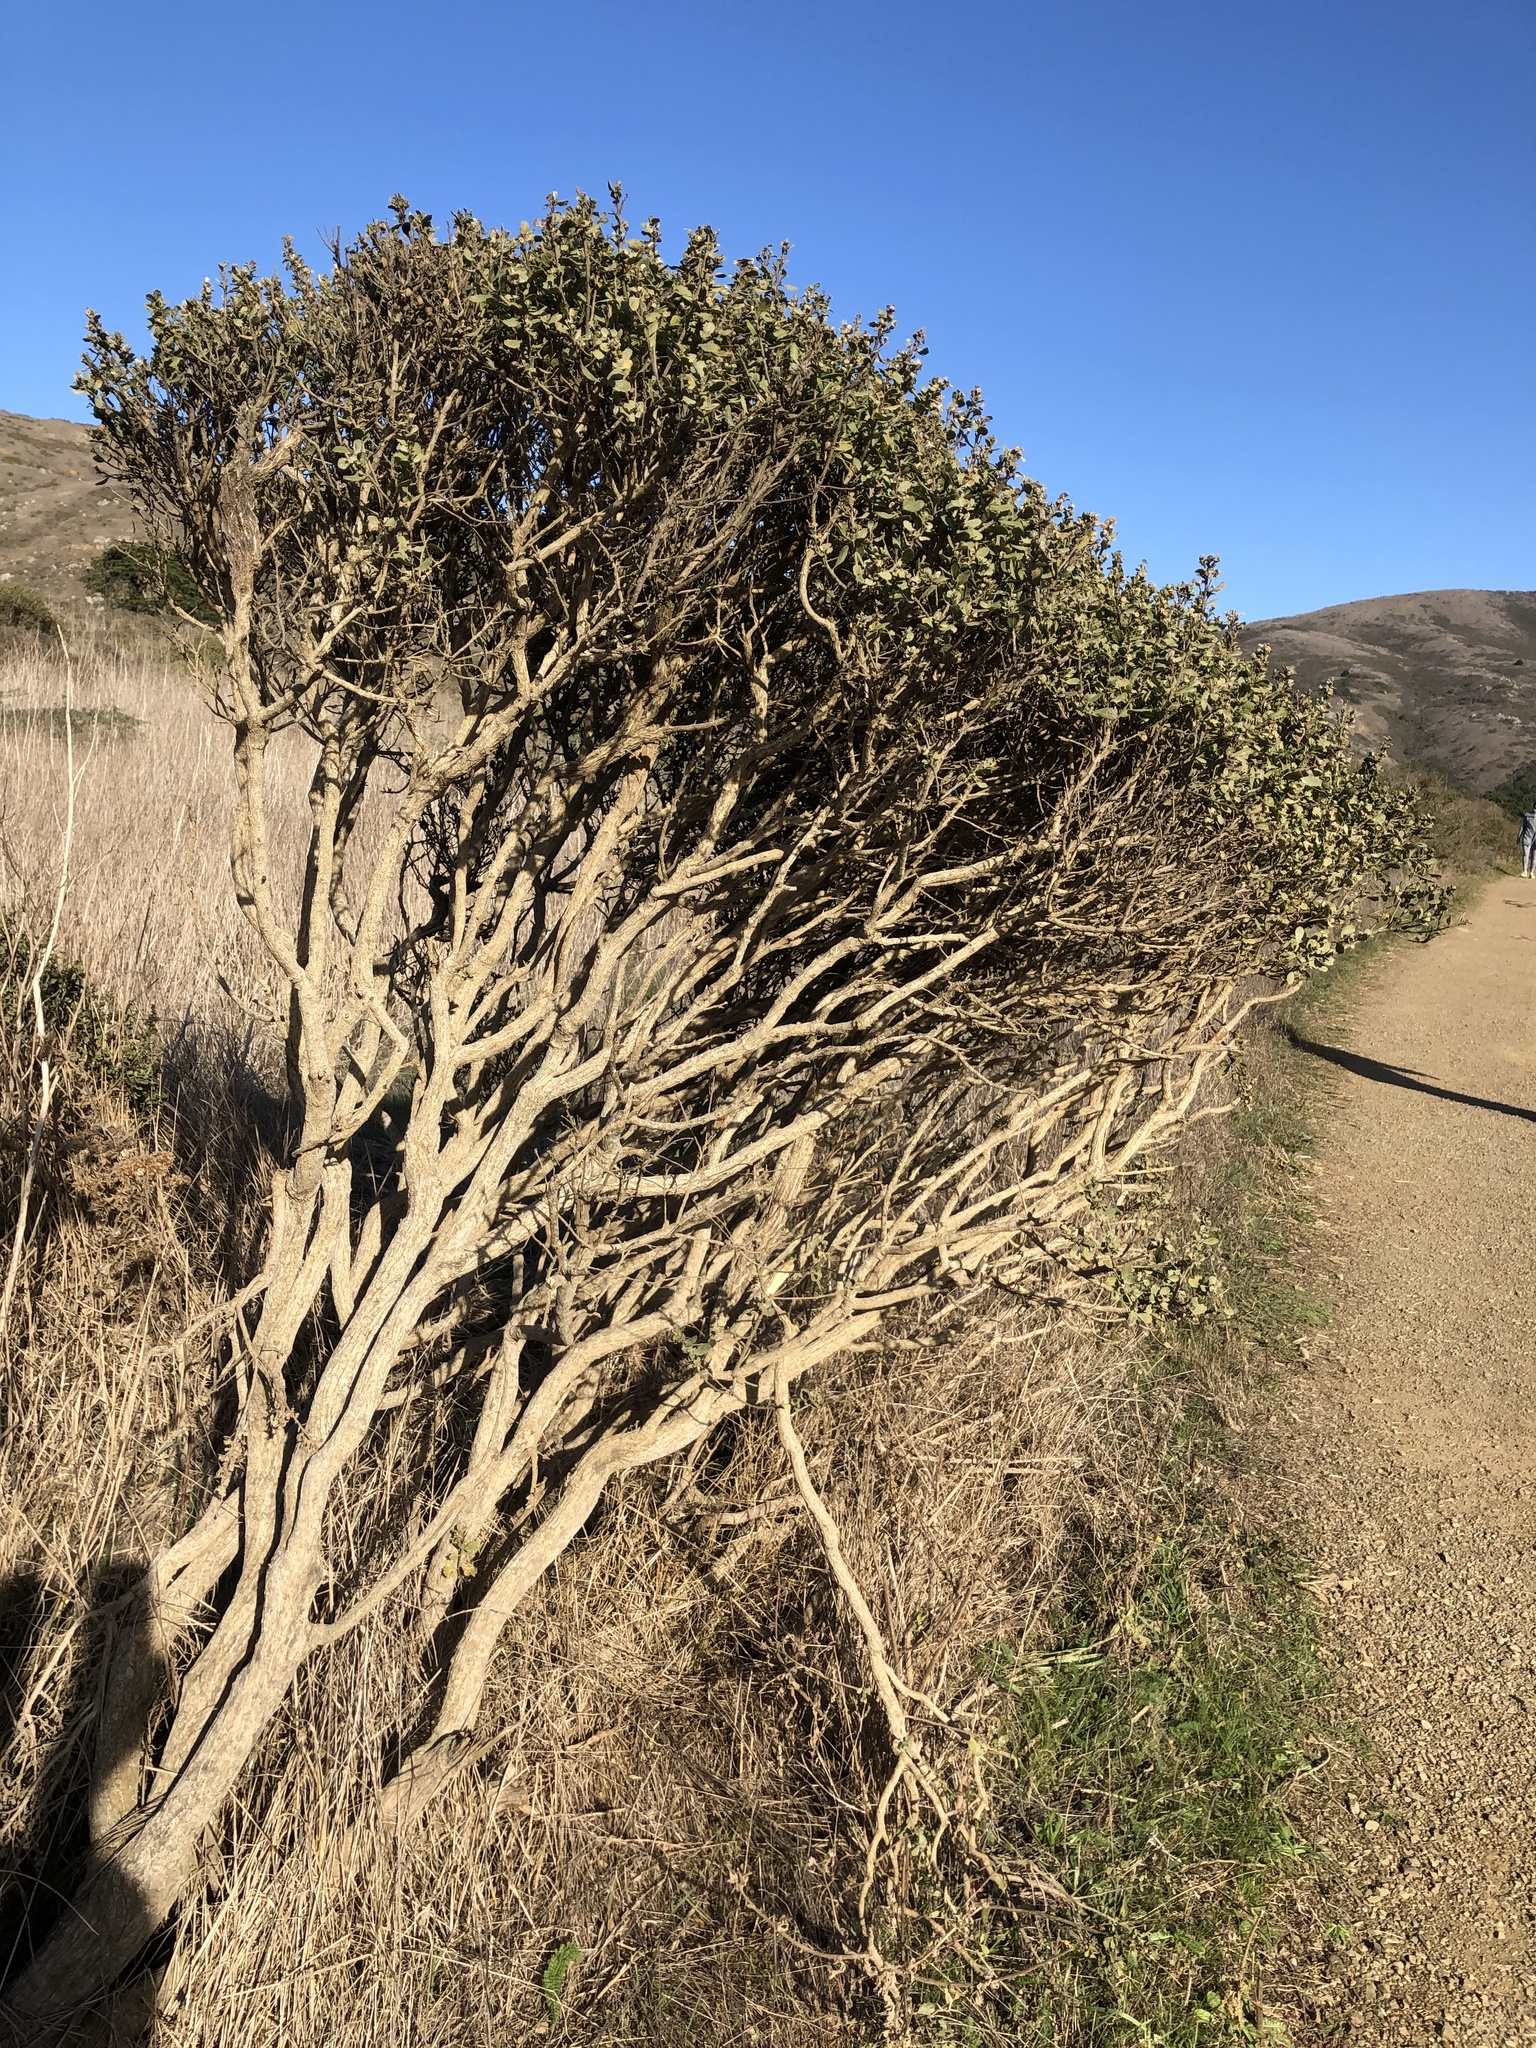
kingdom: Plantae
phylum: Tracheophyta
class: Magnoliopsida
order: Asterales
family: Asteraceae
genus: Baccharis
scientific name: Baccharis pilularis
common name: Coyotebrush
